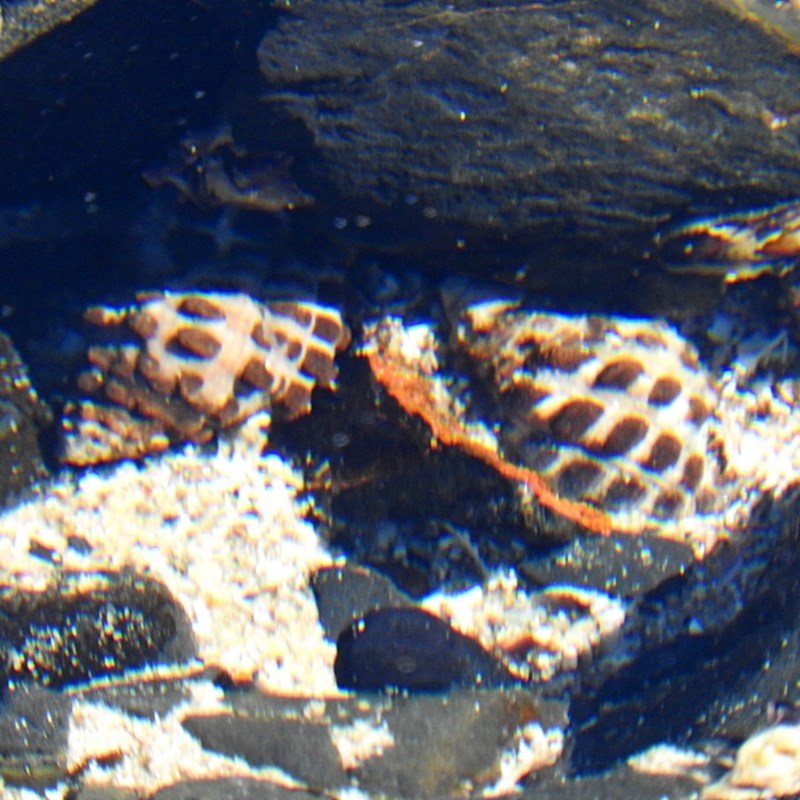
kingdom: Animalia
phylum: Mollusca
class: Gastropoda
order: Neogastropoda
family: Muricidae
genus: Tenguella
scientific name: Tenguella marginalba
